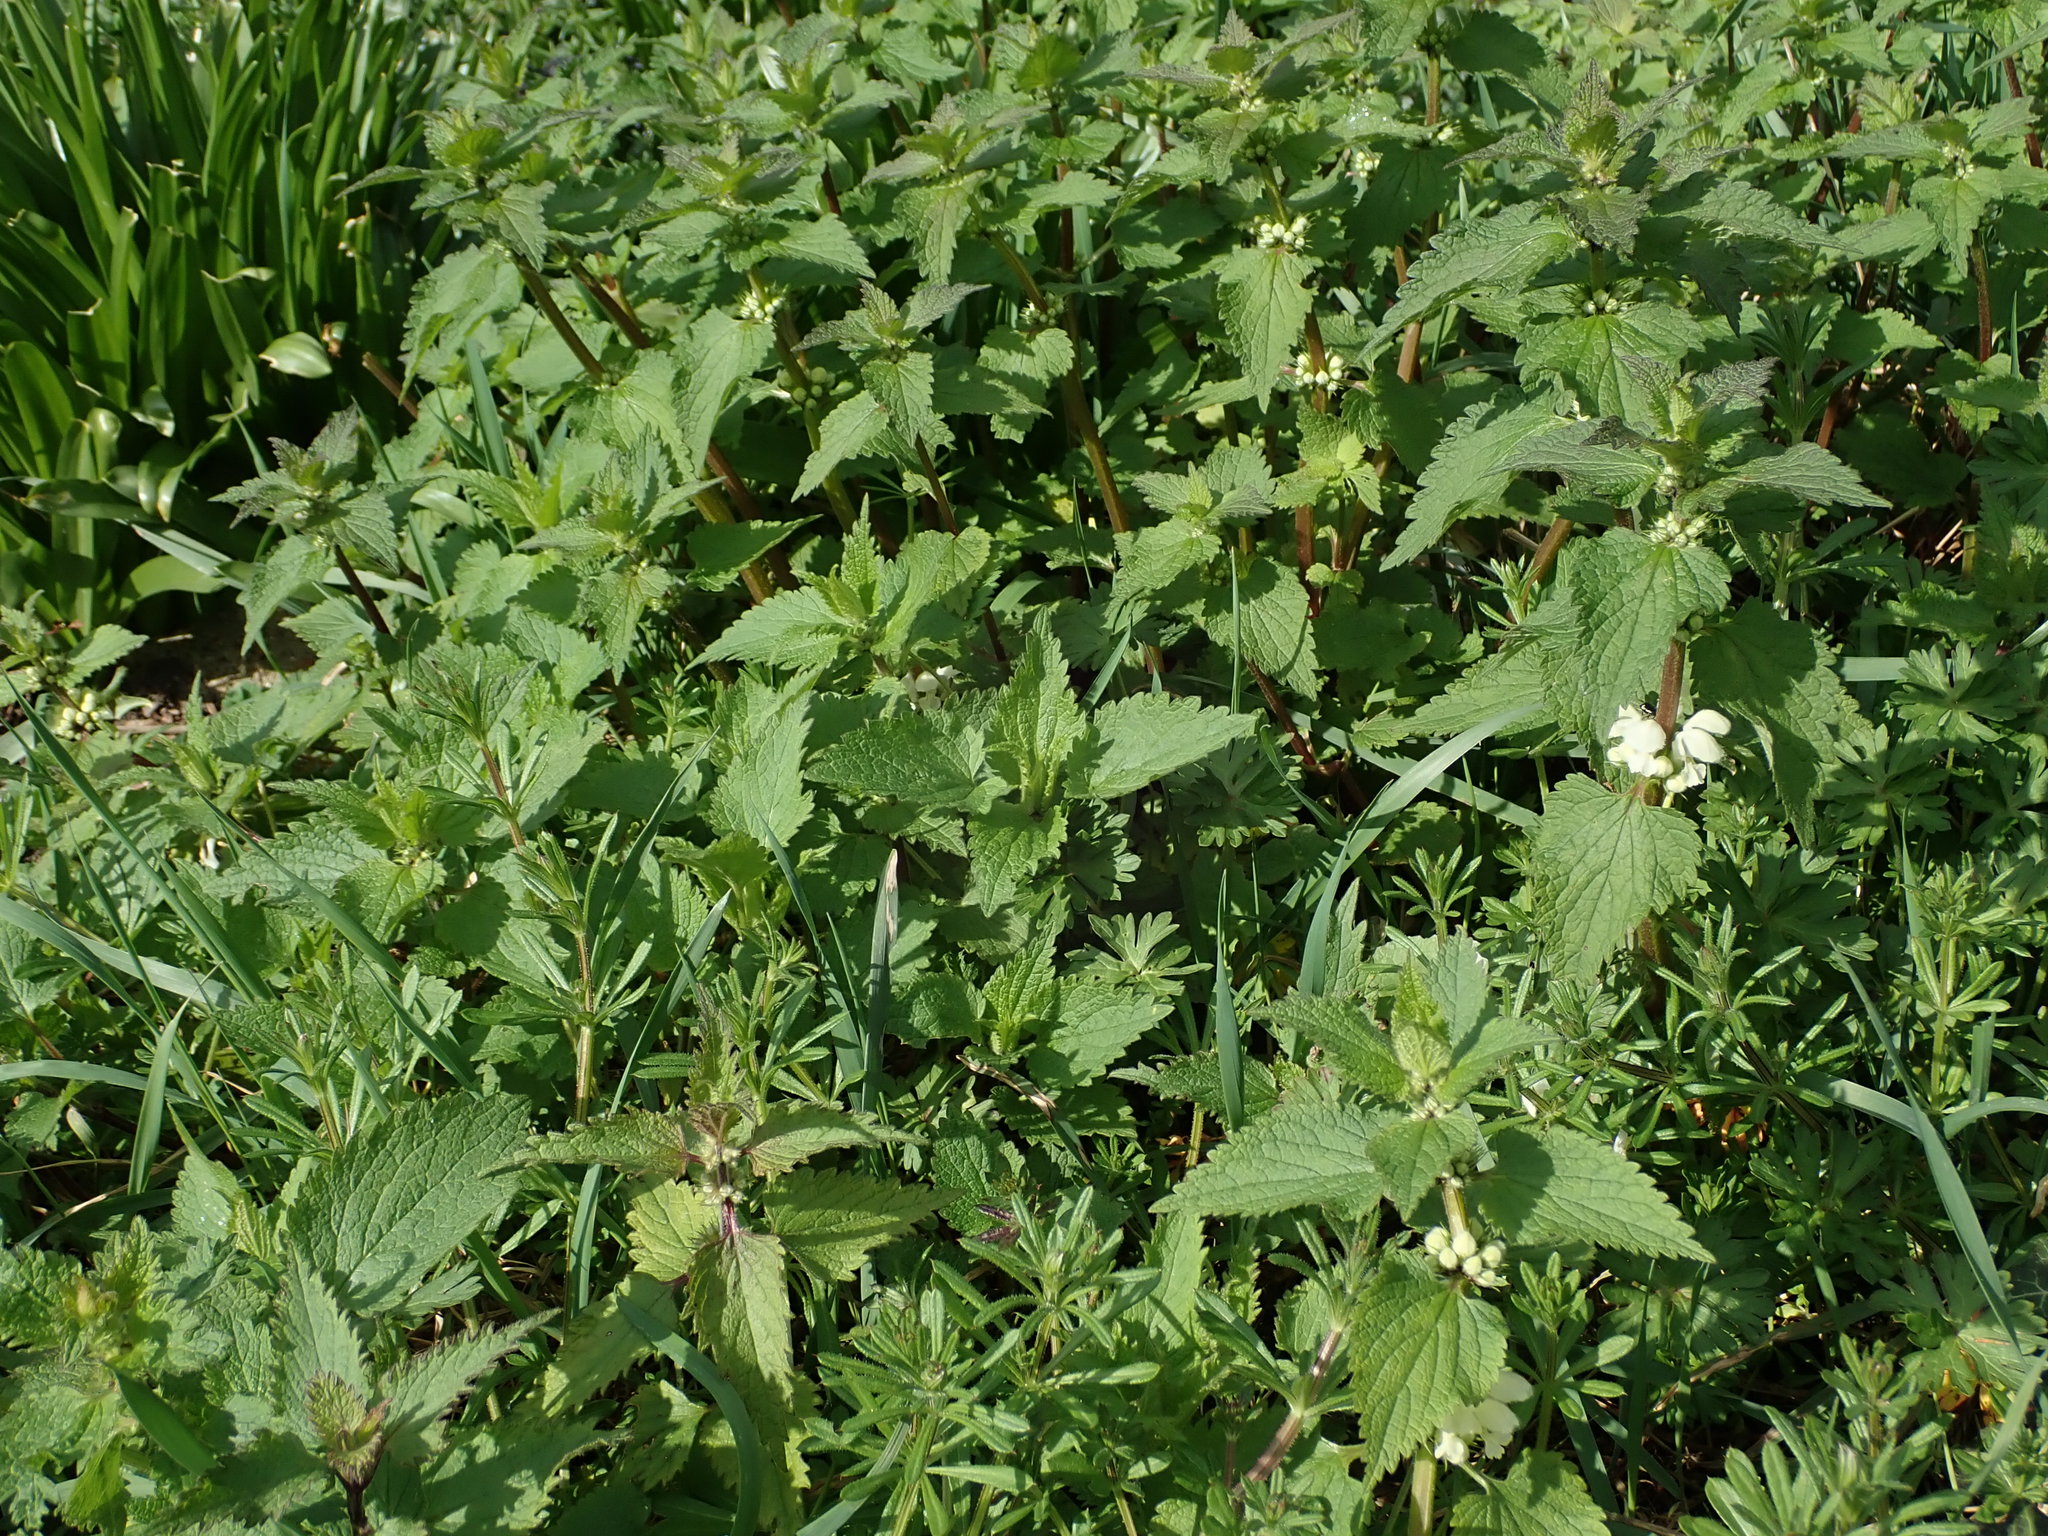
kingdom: Plantae
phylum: Tracheophyta
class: Magnoliopsida
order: Lamiales
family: Lamiaceae
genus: Lamium
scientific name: Lamium album
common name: White dead-nettle
